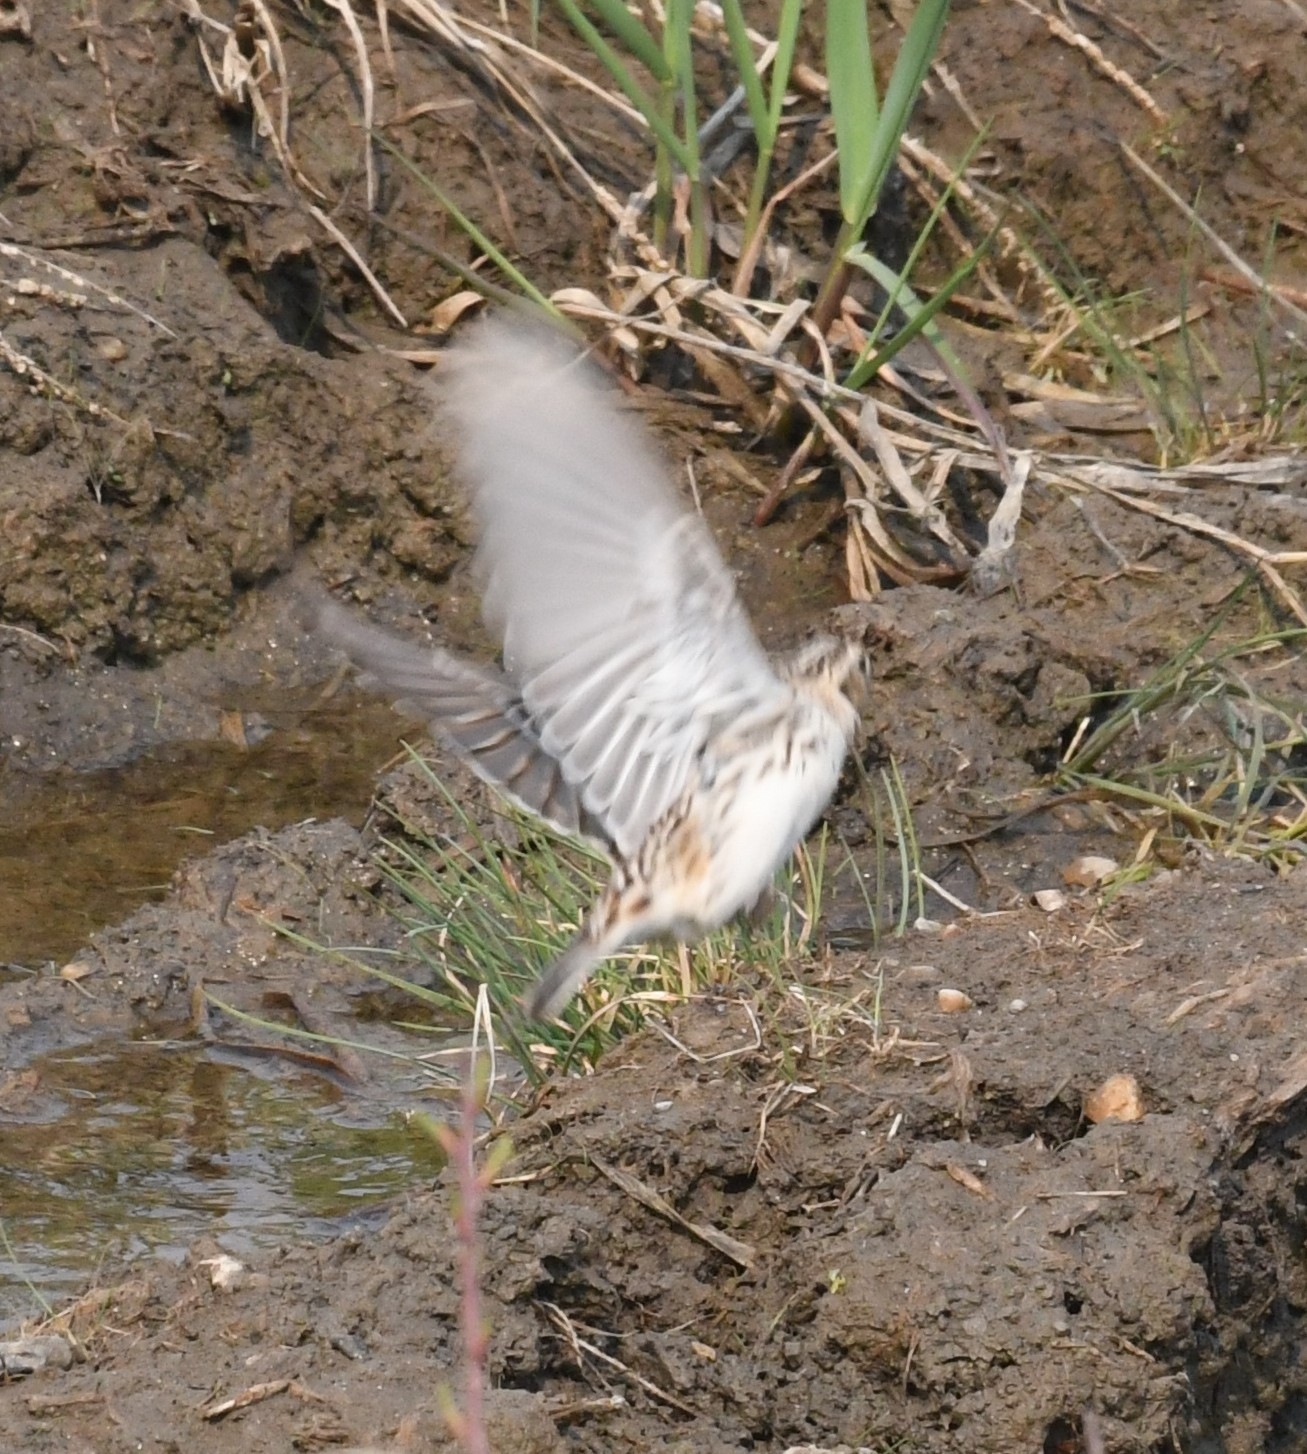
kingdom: Animalia
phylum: Chordata
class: Aves
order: Passeriformes
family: Calcariidae
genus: Calcarius
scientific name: Calcarius lapponicus
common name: Lapland longspur
